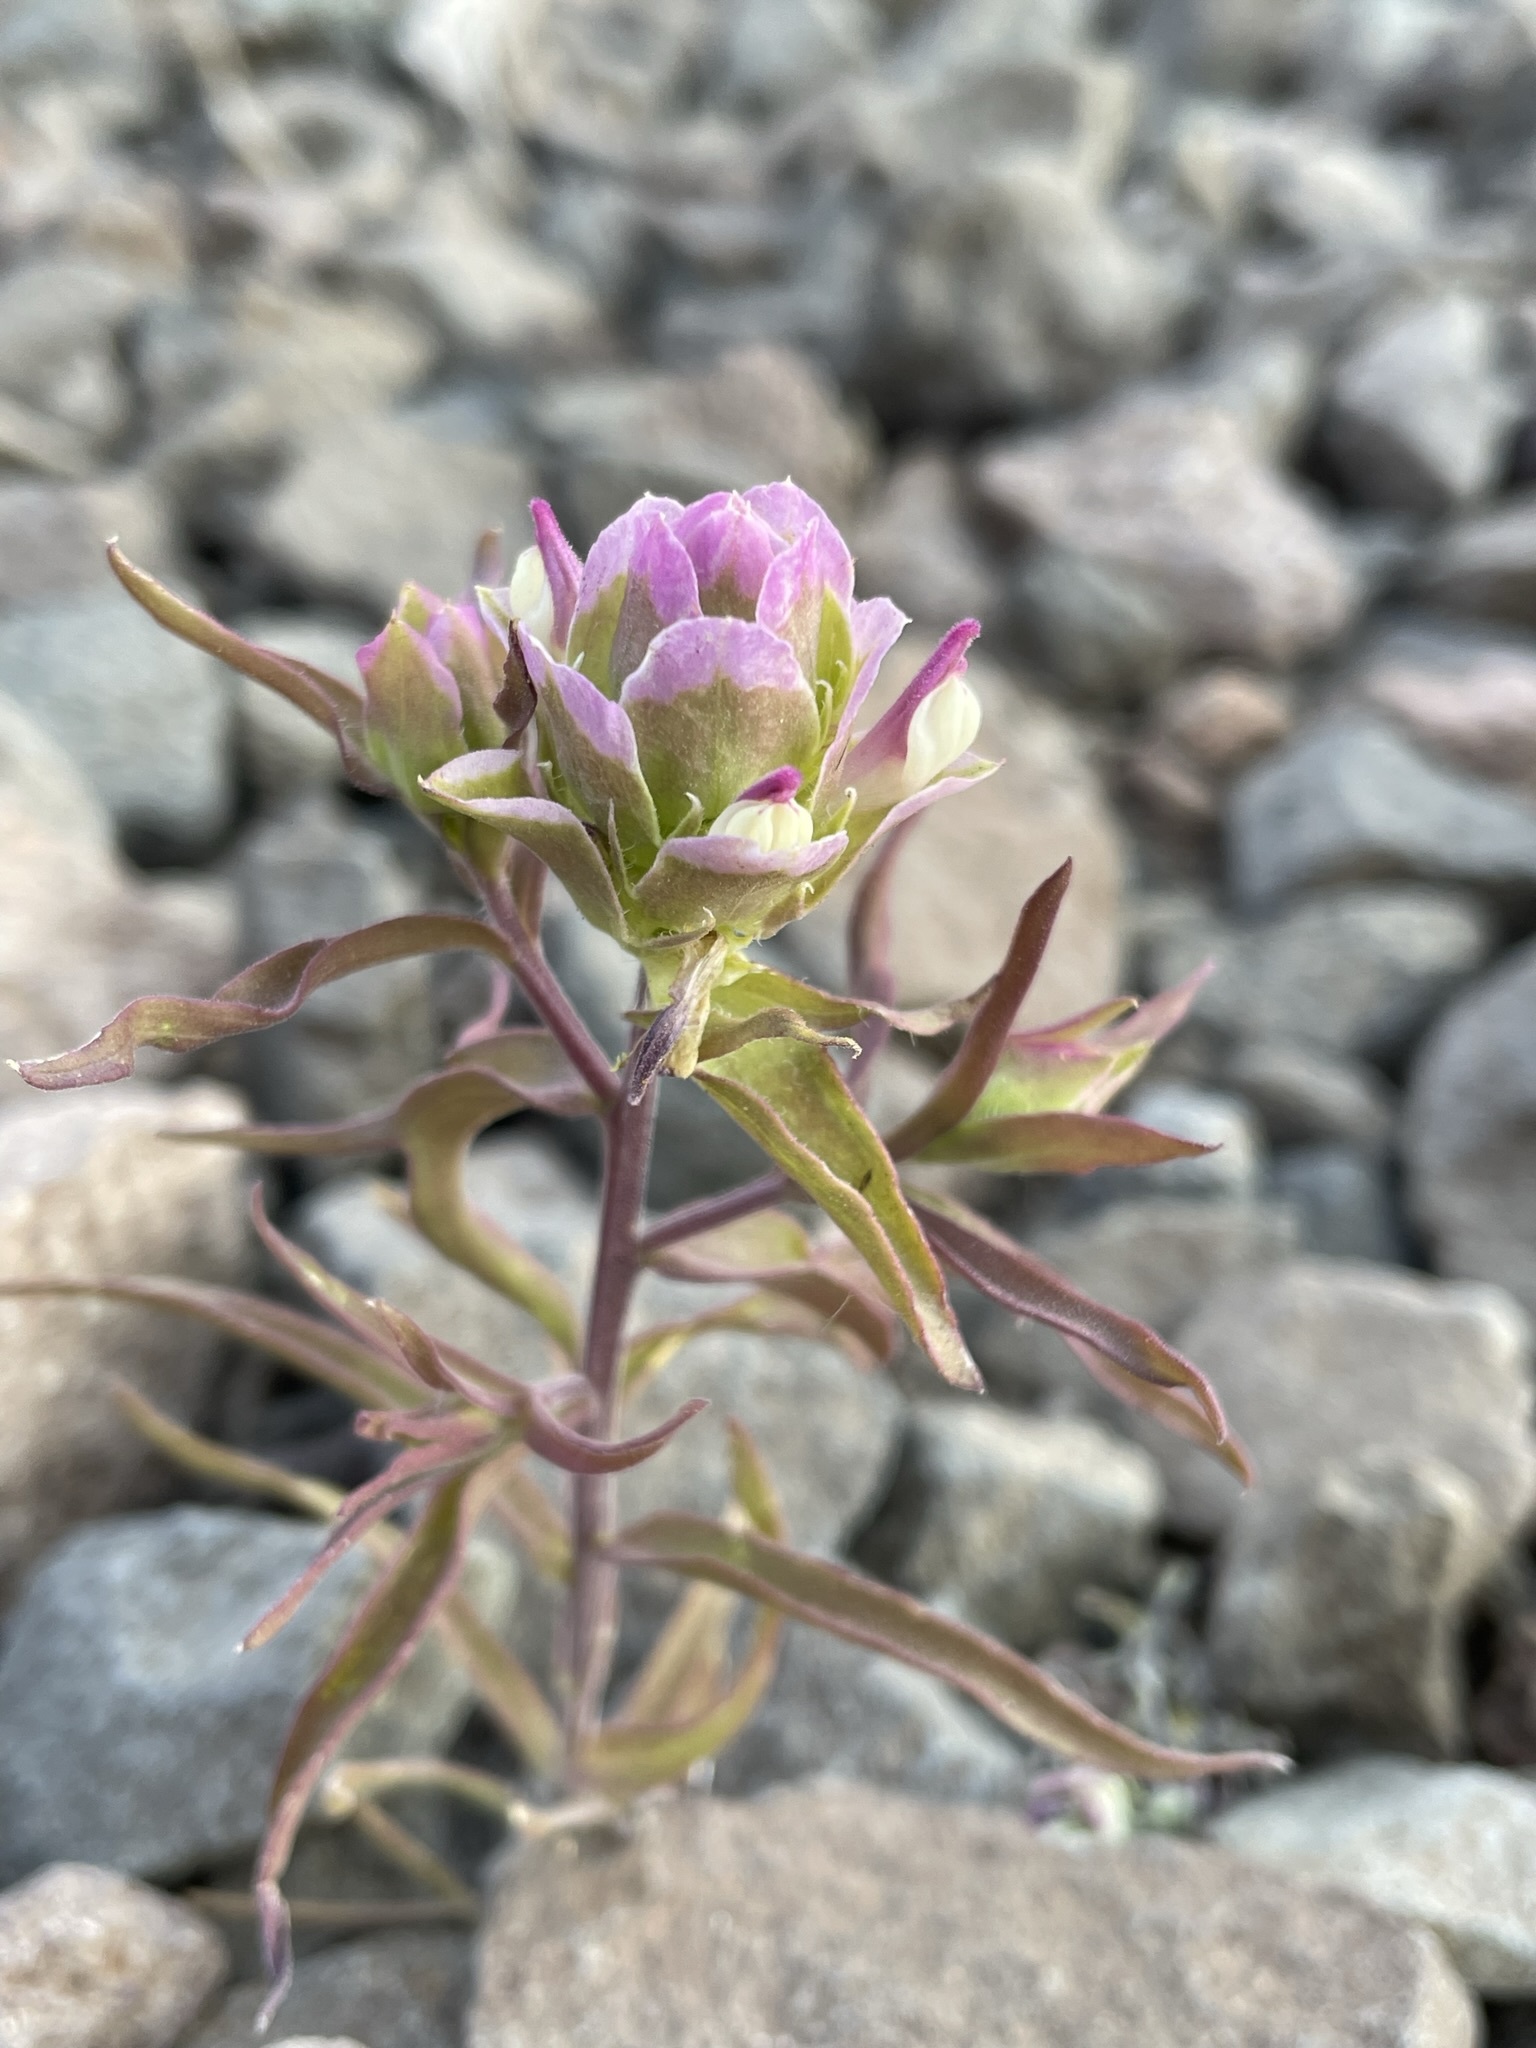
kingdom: Plantae
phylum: Tracheophyta
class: Magnoliopsida
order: Lamiales
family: Orobanchaceae
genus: Orthocarpus
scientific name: Orthocarpus cuspidatus
